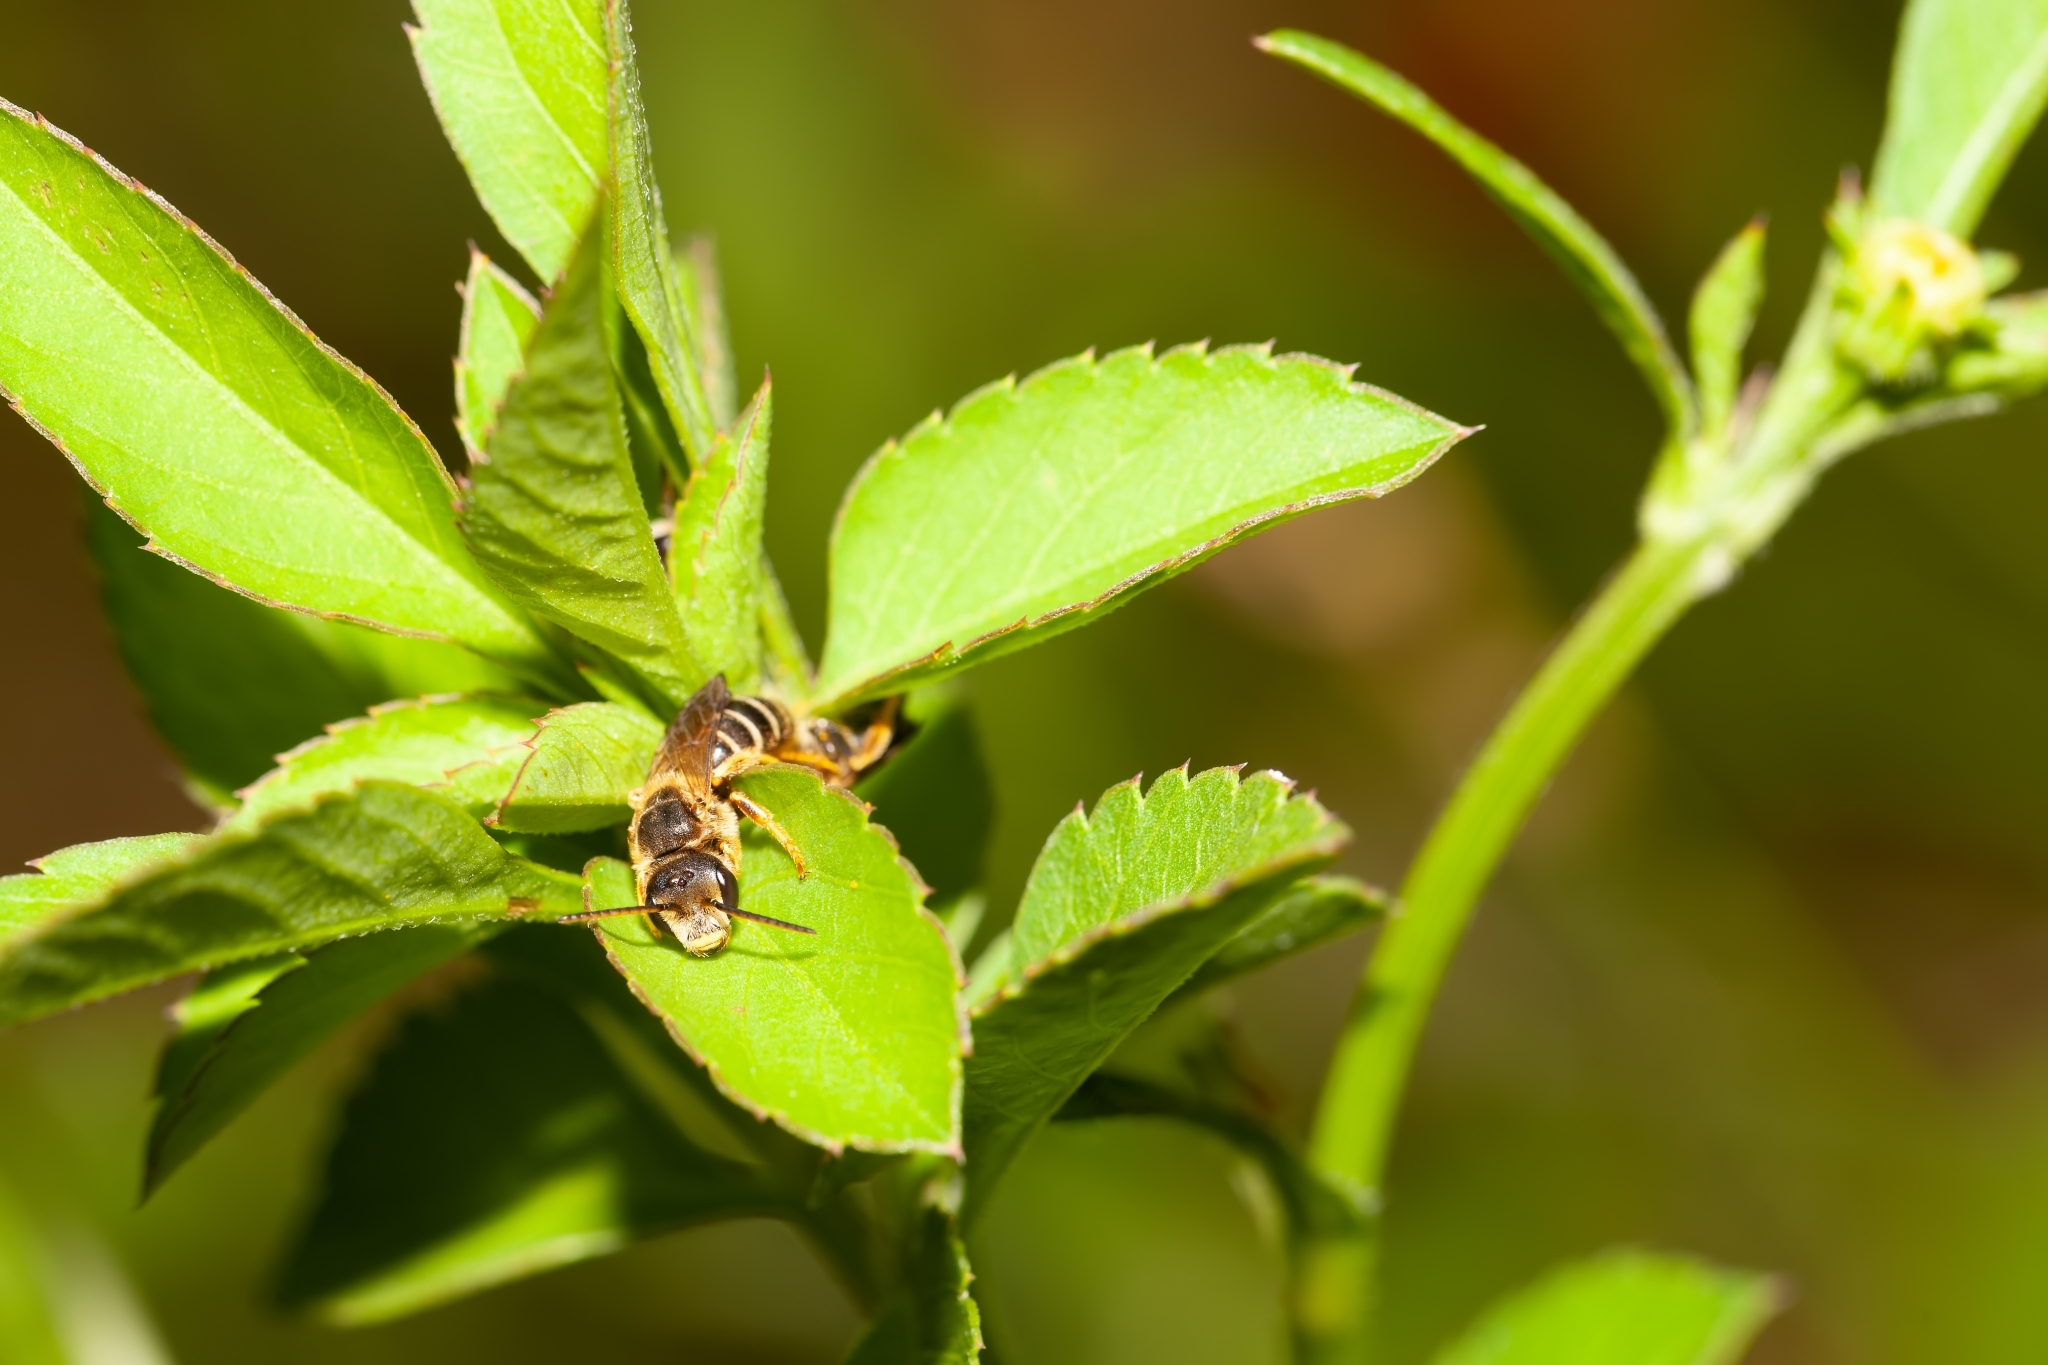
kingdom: Animalia
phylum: Arthropoda
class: Insecta
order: Hymenoptera
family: Halictidae
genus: Halictus
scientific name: Halictus poeyi
